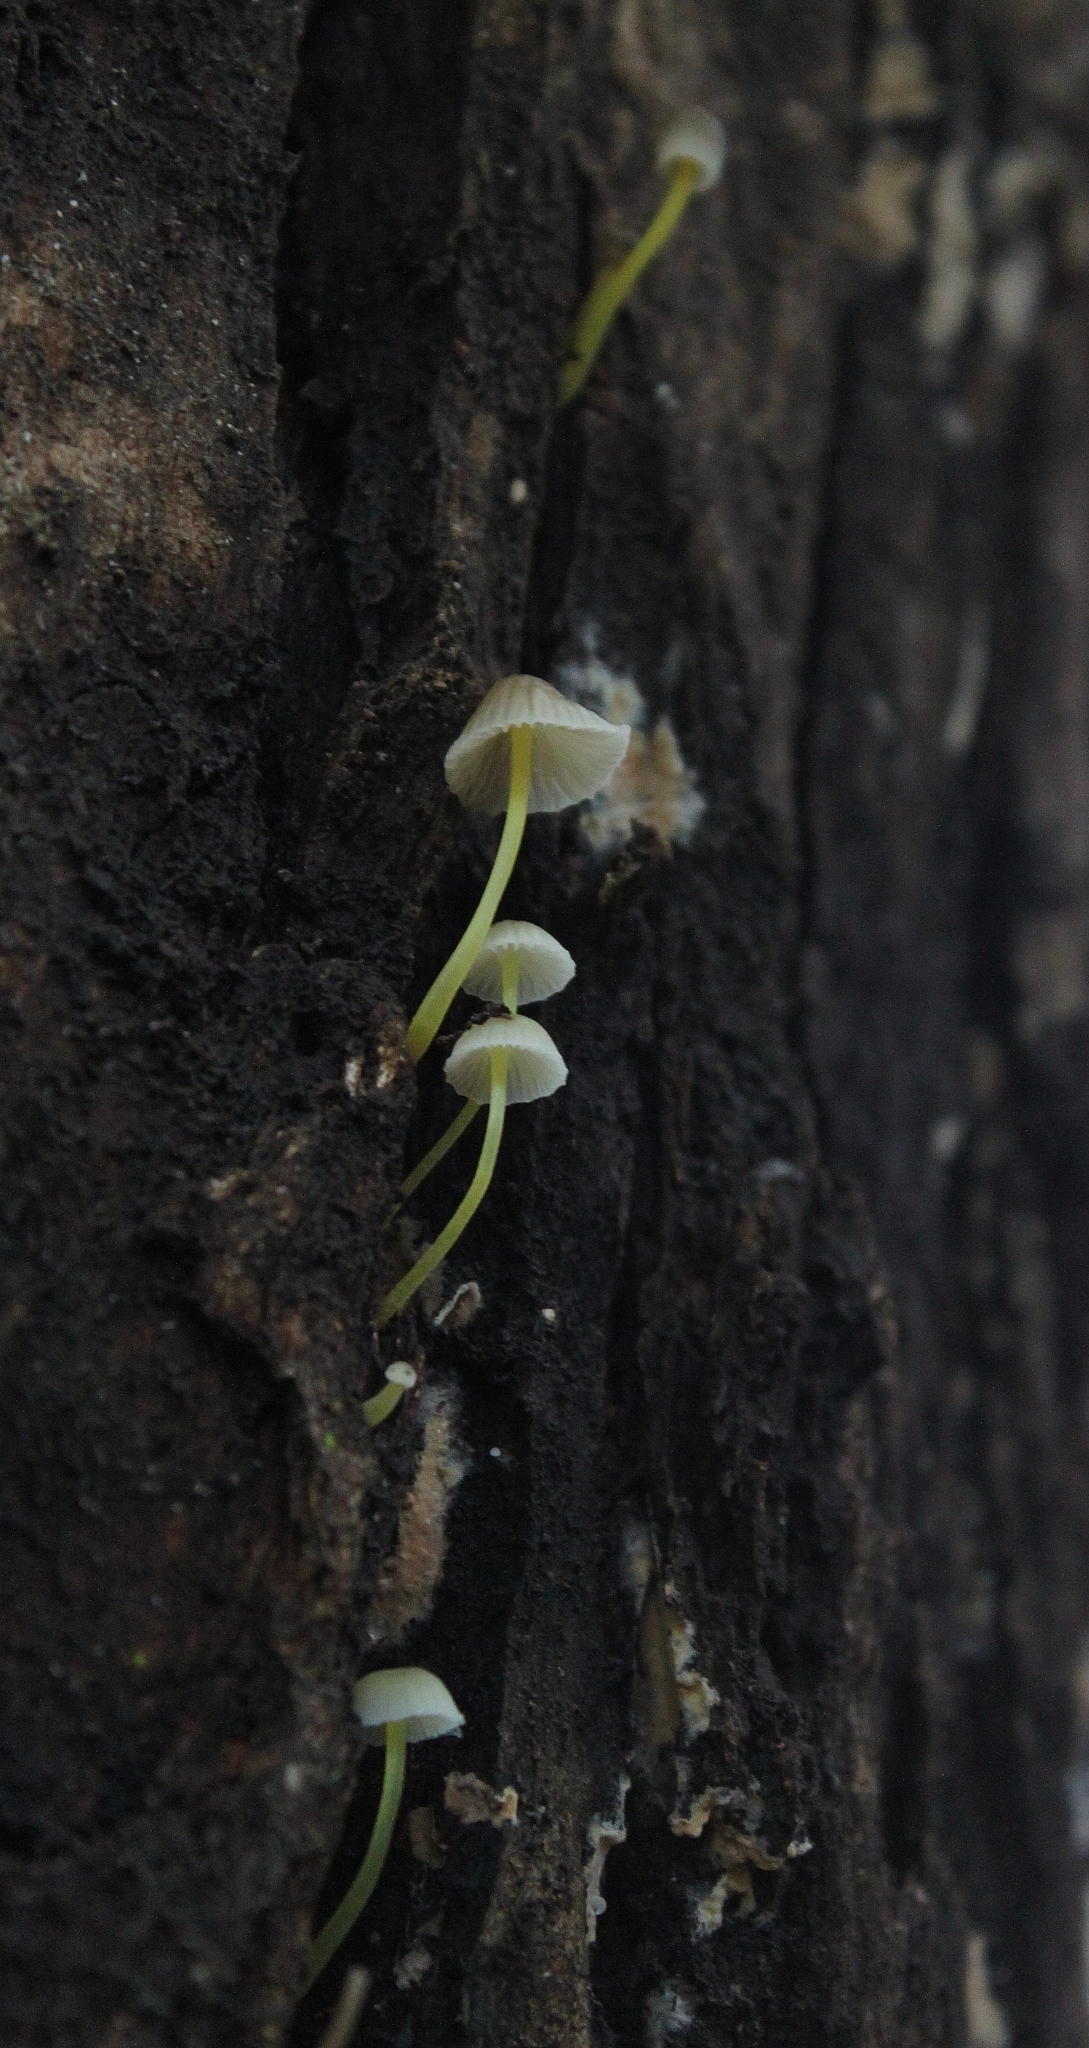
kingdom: Fungi
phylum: Basidiomycota
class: Agaricomycetes
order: Agaricales
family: Mycenaceae
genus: Mycena
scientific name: Mycena epipterygia
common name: Yellowleg bonnet
